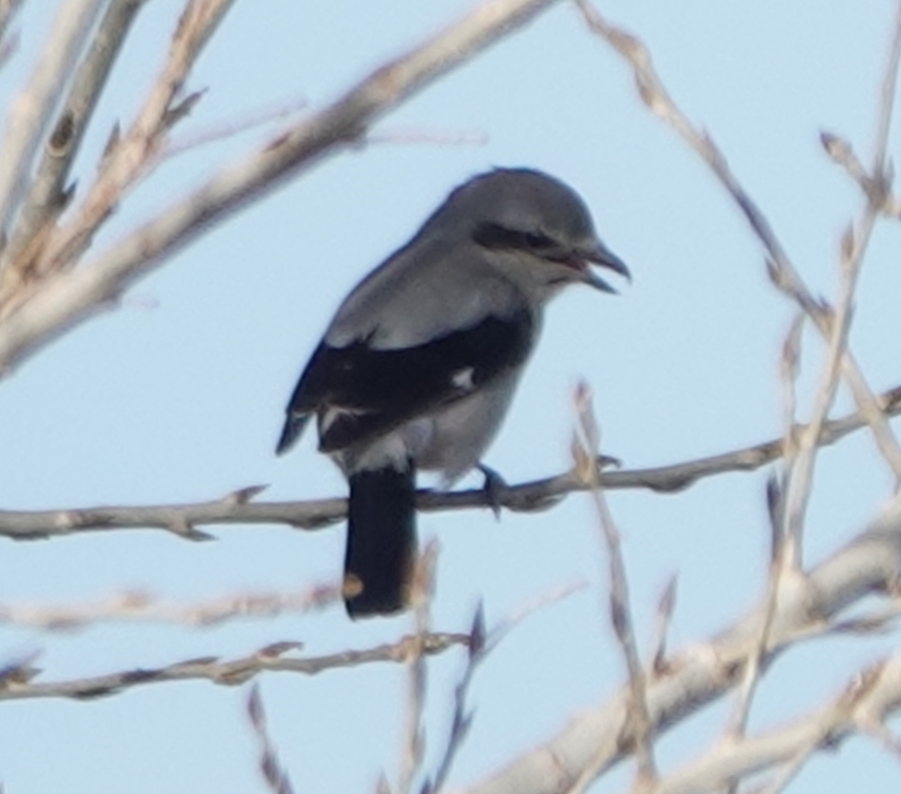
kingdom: Animalia
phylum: Chordata
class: Aves
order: Passeriformes
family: Laniidae
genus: Lanius
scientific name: Lanius borealis
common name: Northern shrike
